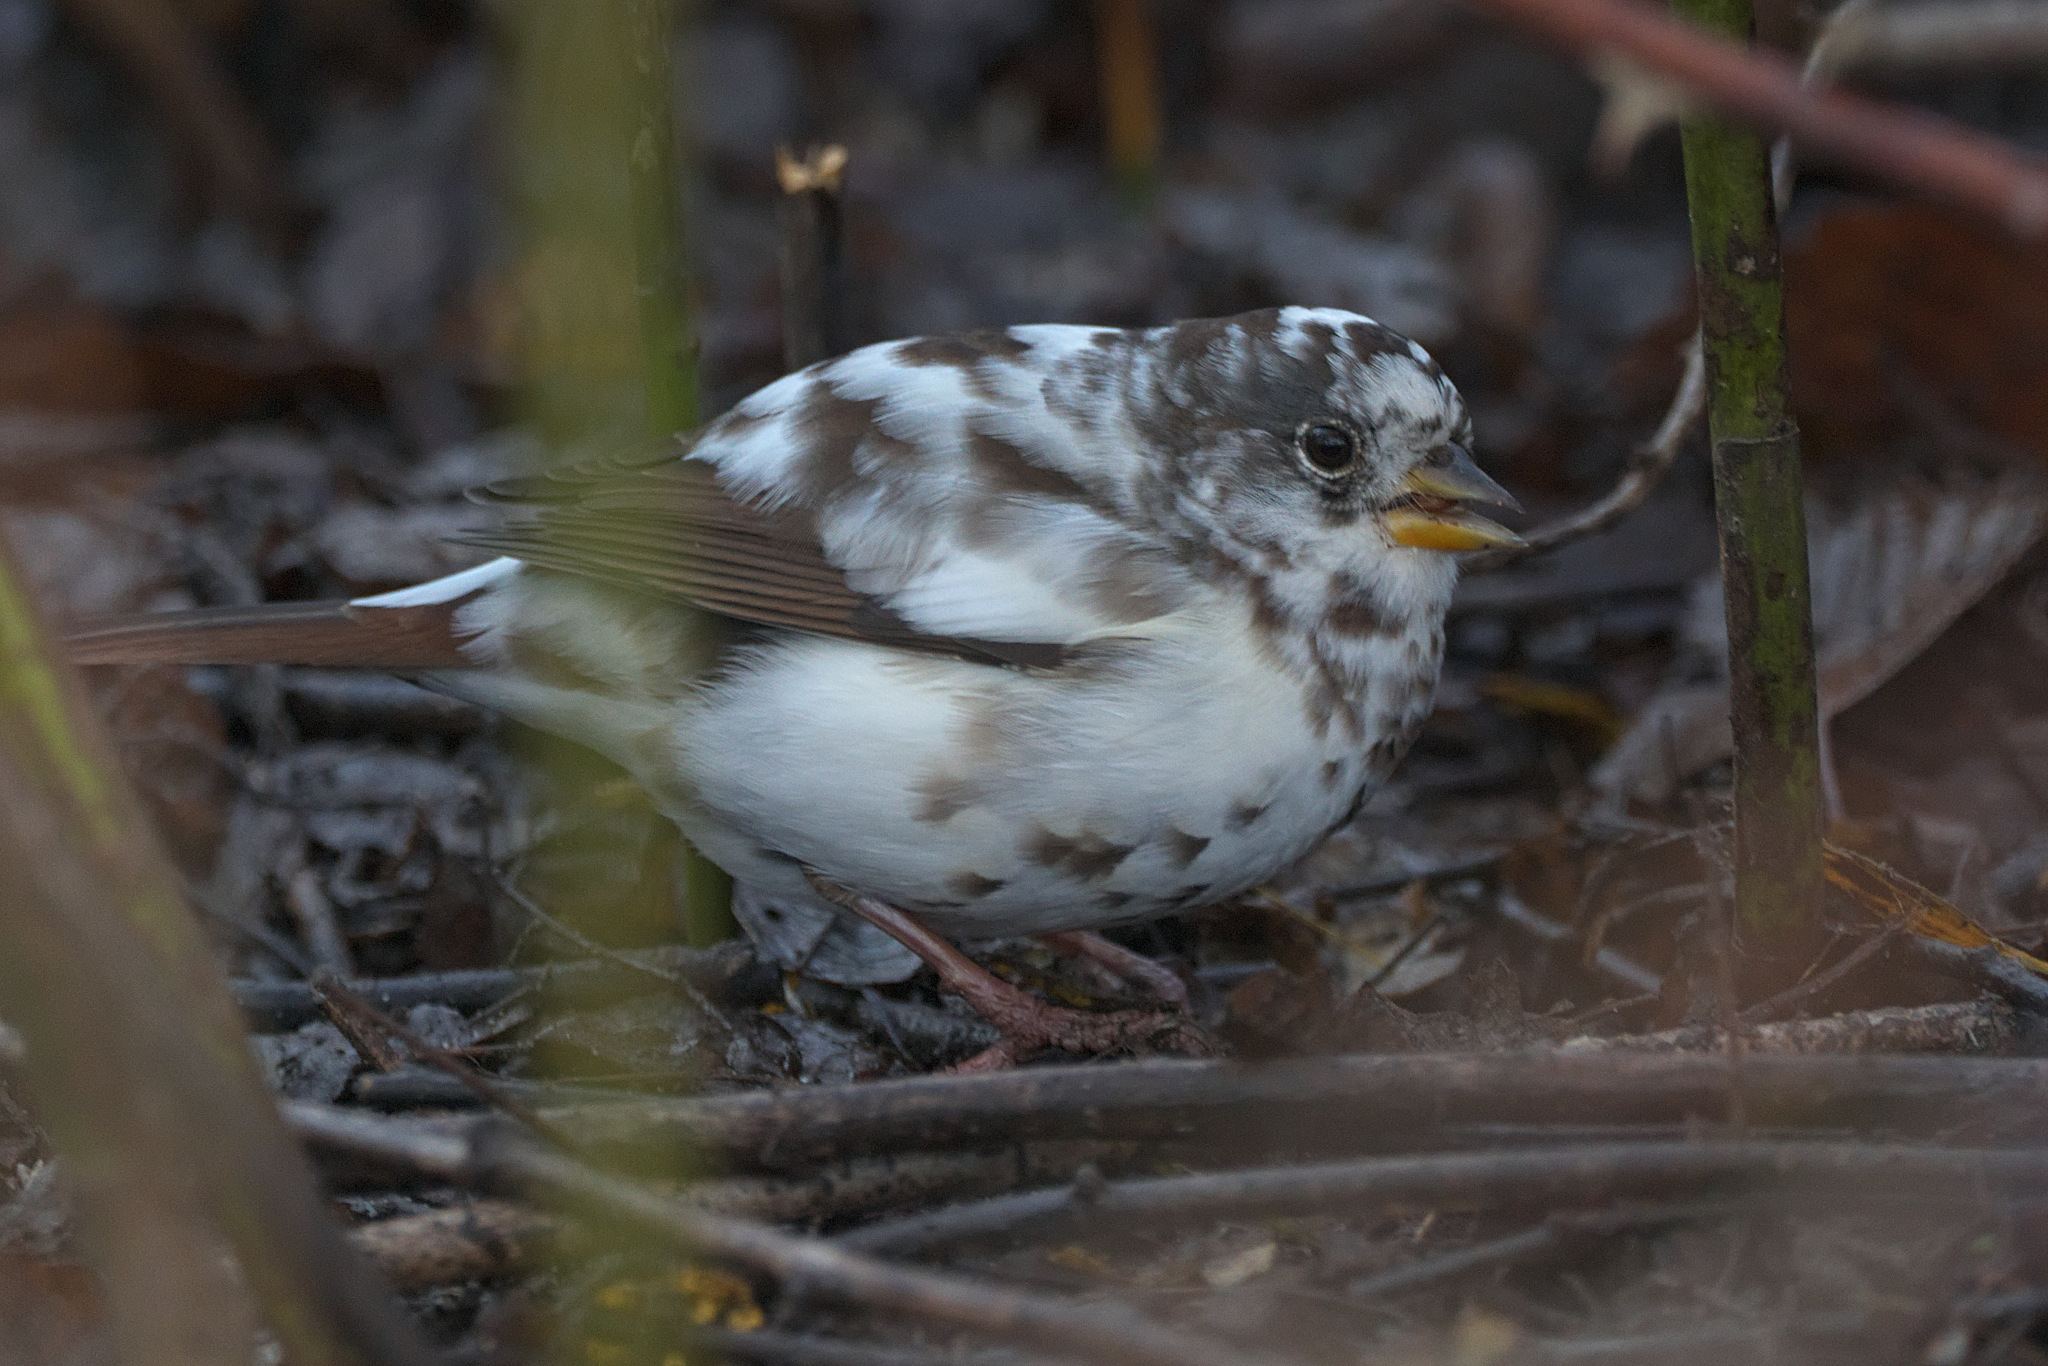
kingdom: Animalia
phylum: Chordata
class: Aves
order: Passeriformes
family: Passerellidae
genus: Passerella
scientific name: Passerella iliaca
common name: Fox sparrow
